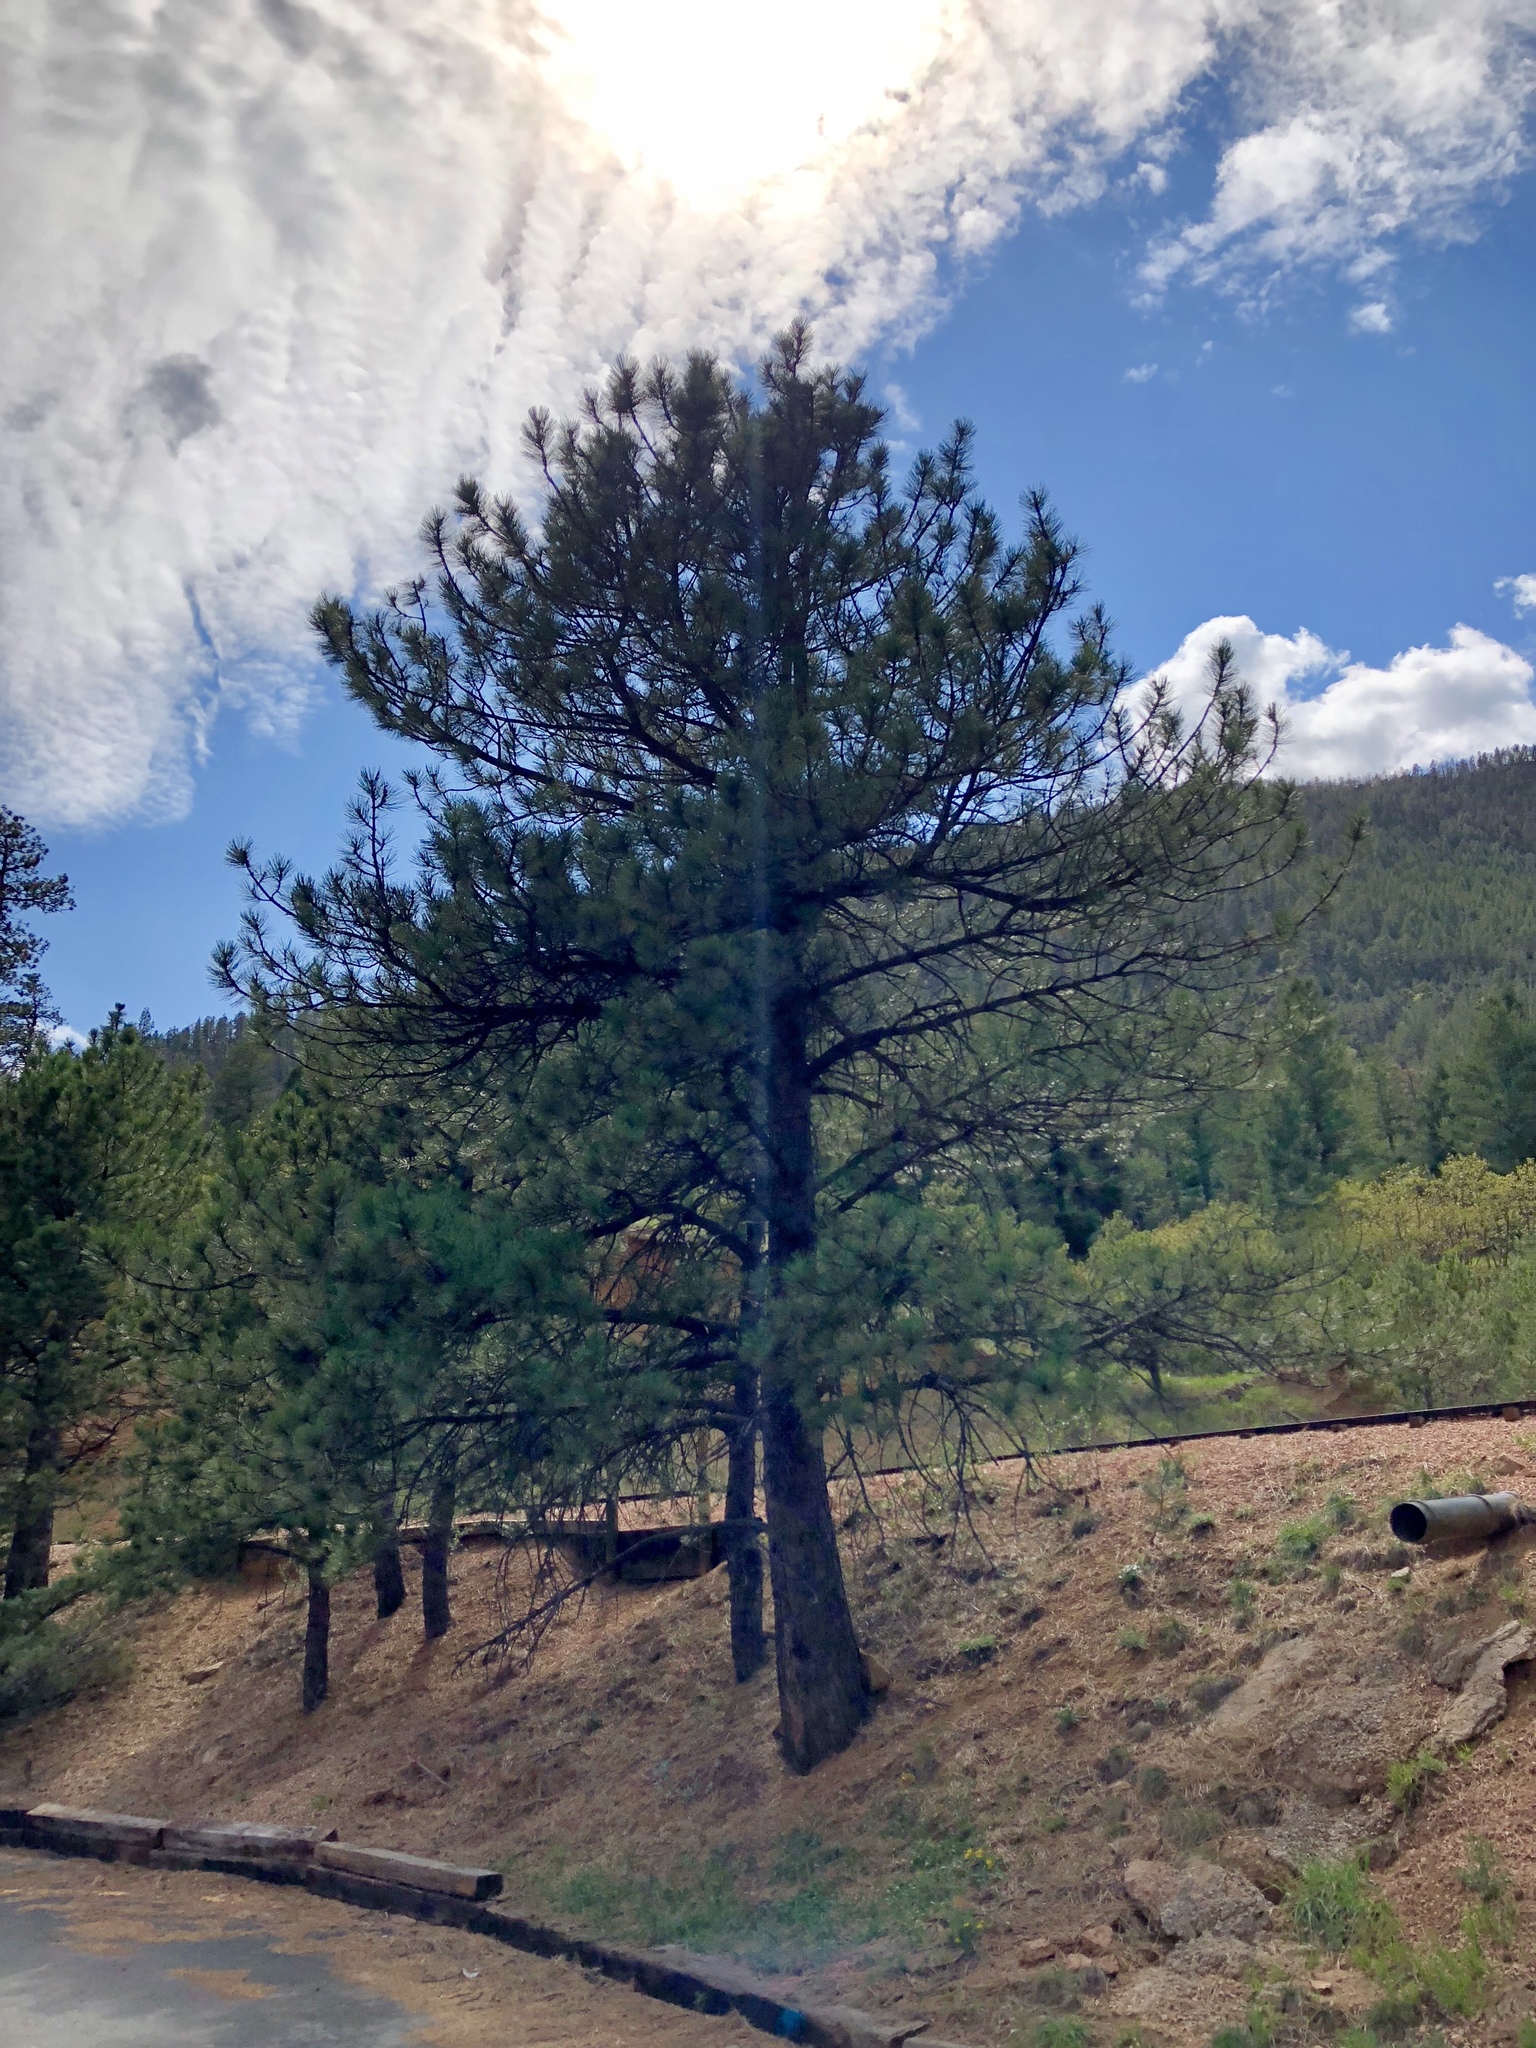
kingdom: Plantae
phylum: Tracheophyta
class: Pinopsida
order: Pinales
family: Pinaceae
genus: Pinus
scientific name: Pinus ponderosa
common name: Western yellow-pine
